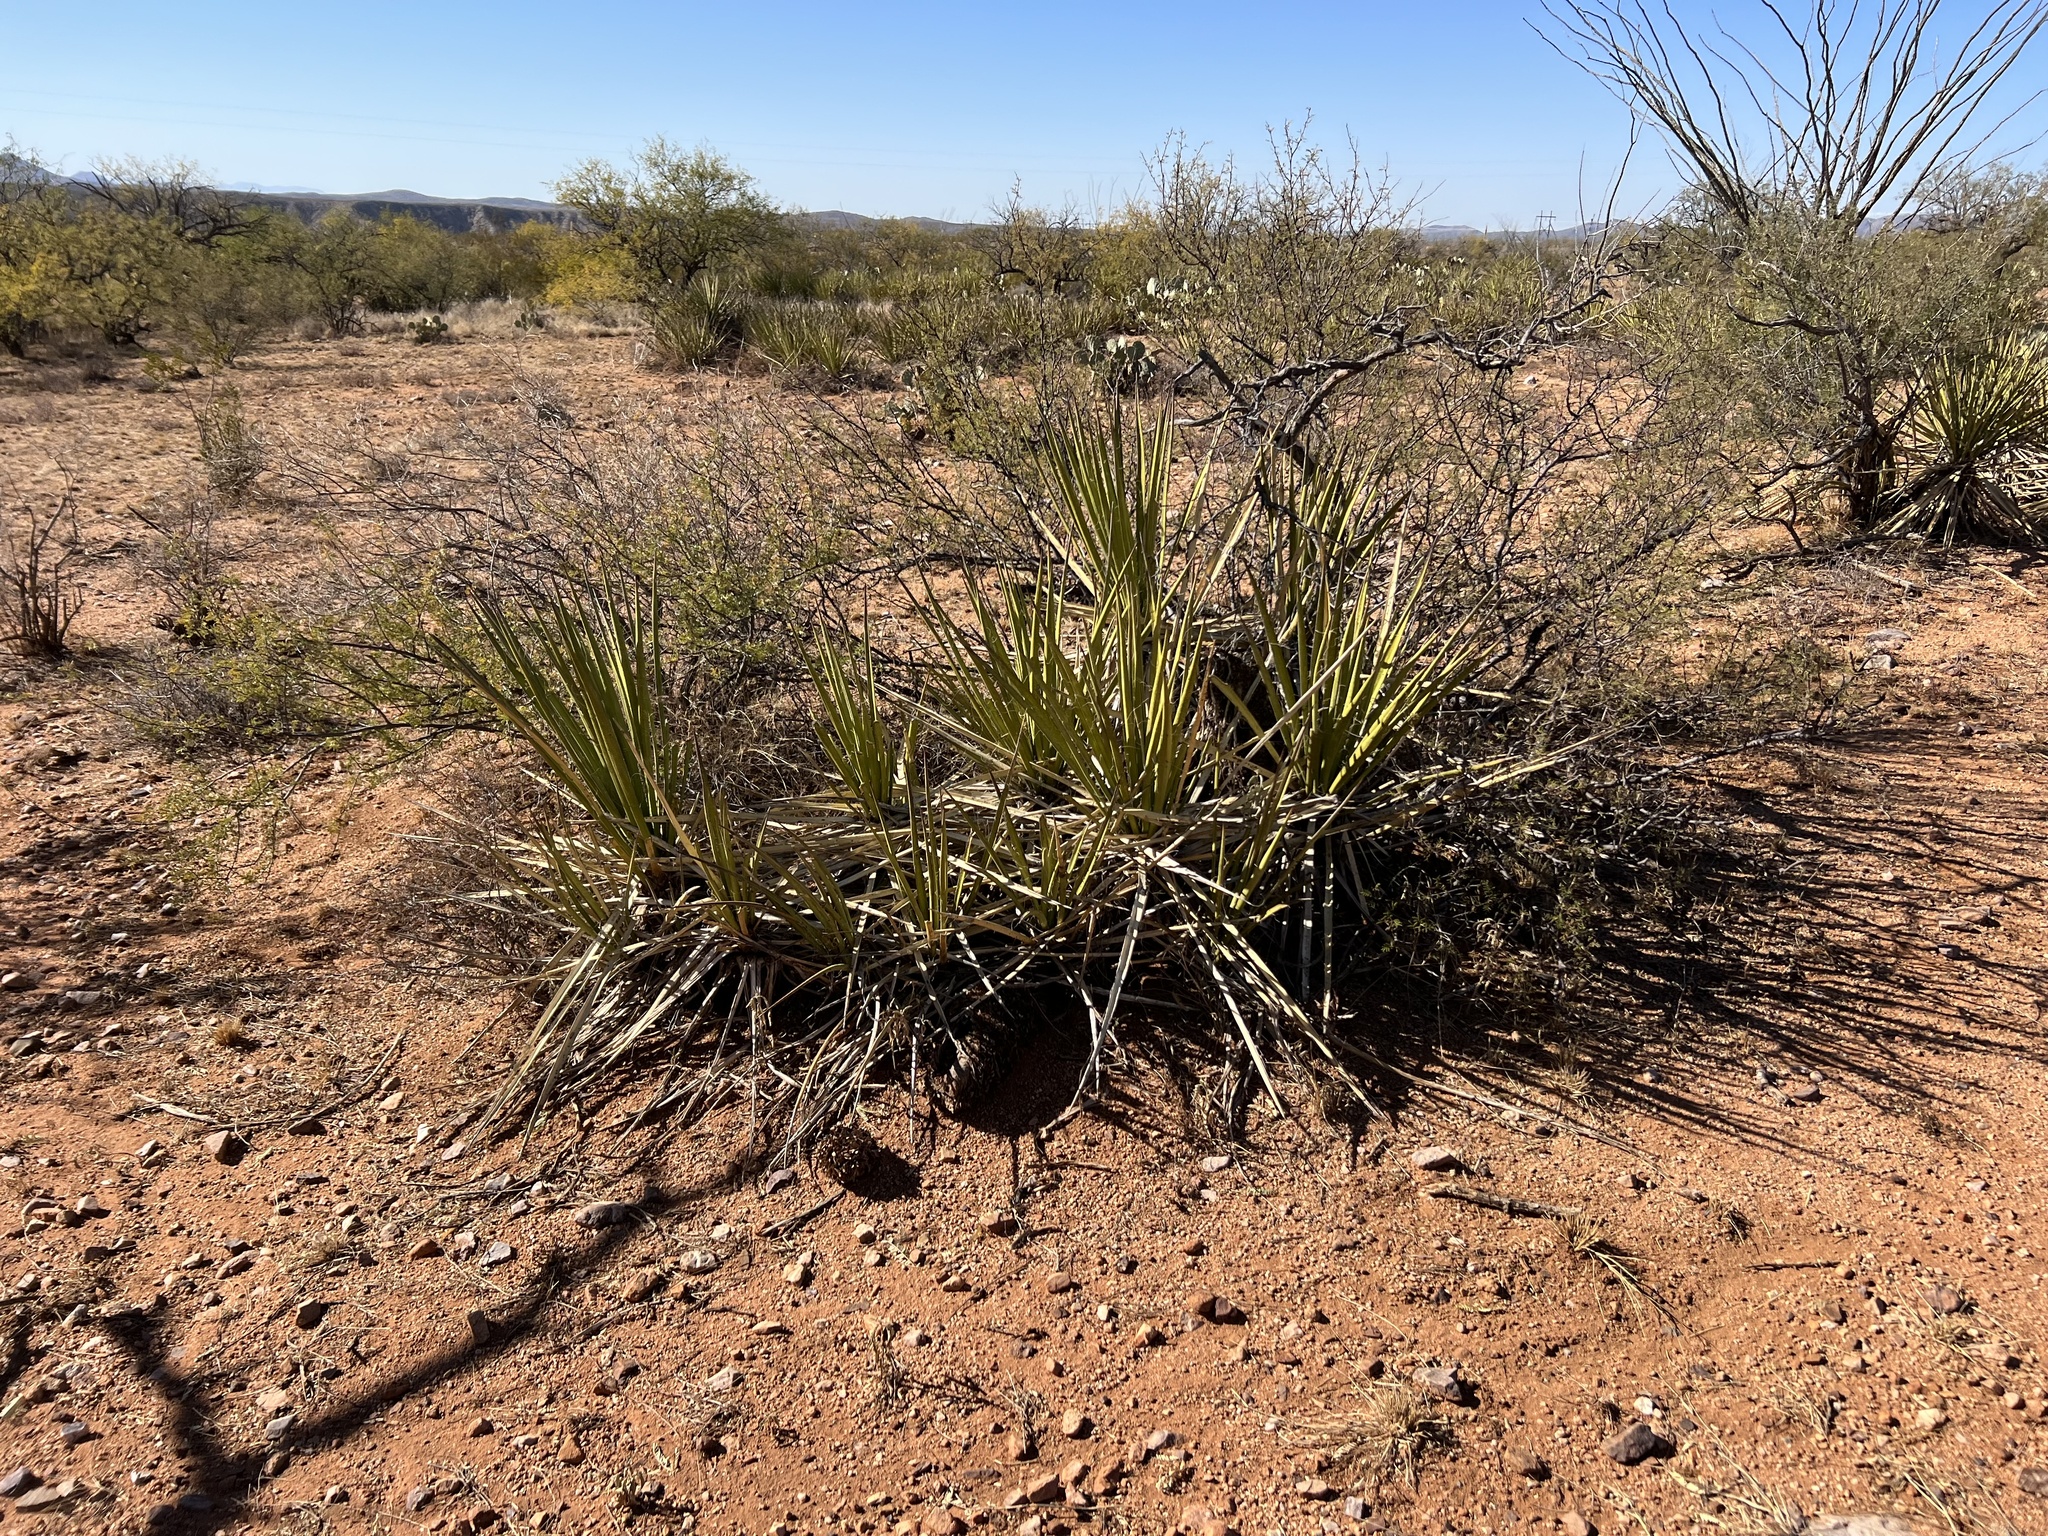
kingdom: Plantae
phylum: Tracheophyta
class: Liliopsida
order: Asparagales
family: Asparagaceae
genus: Yucca
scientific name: Yucca baccata
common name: Banana yucca
